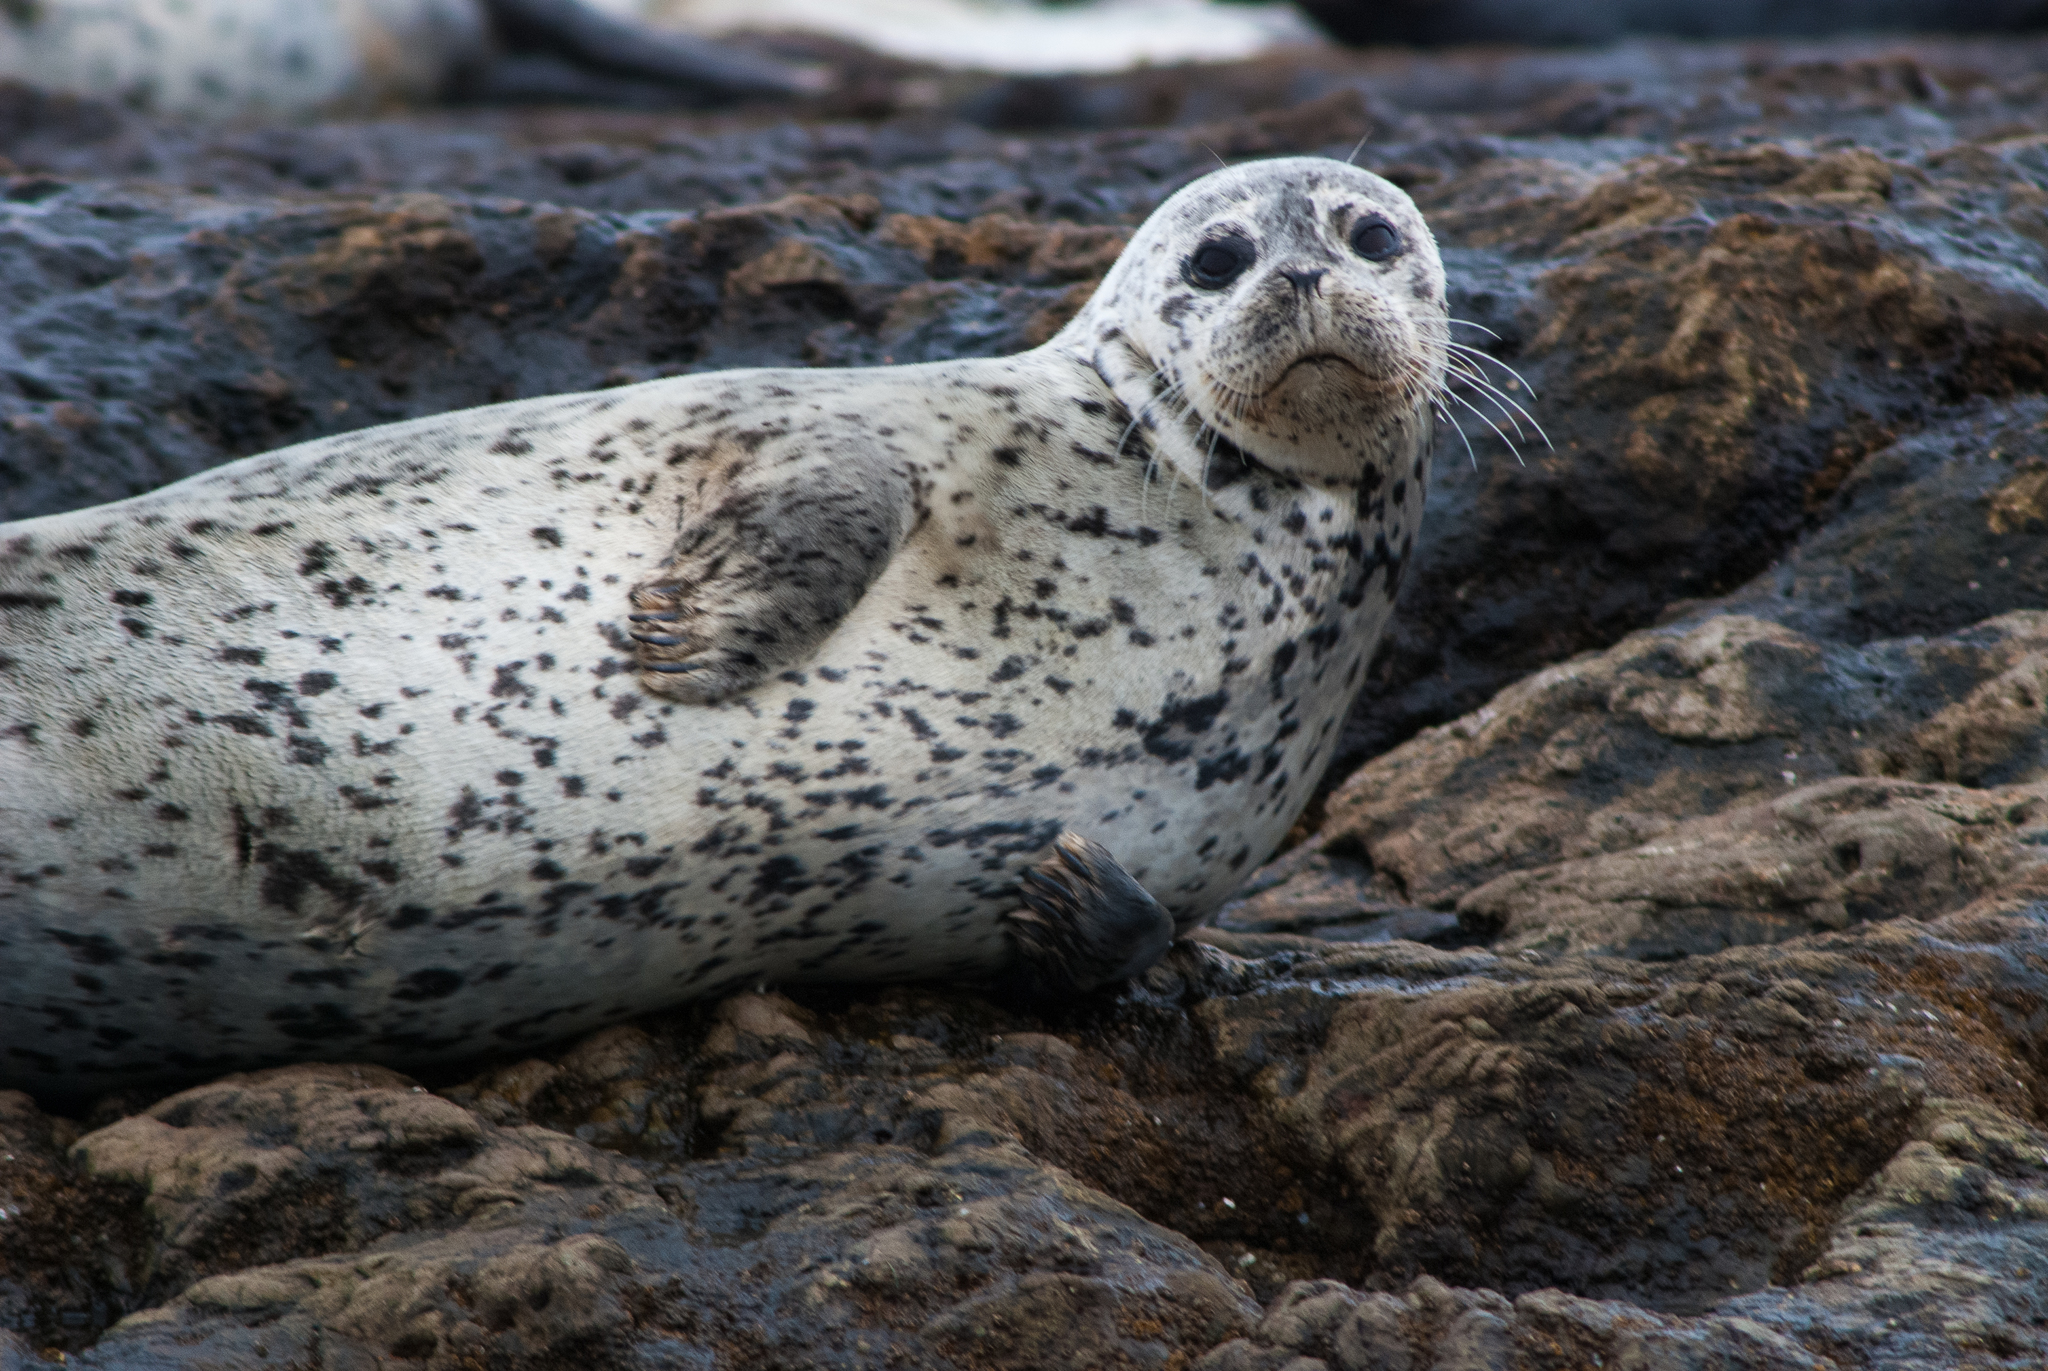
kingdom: Animalia
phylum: Chordata
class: Mammalia
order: Carnivora
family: Phocidae
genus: Phoca
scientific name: Phoca vitulina
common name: Harbor seal
